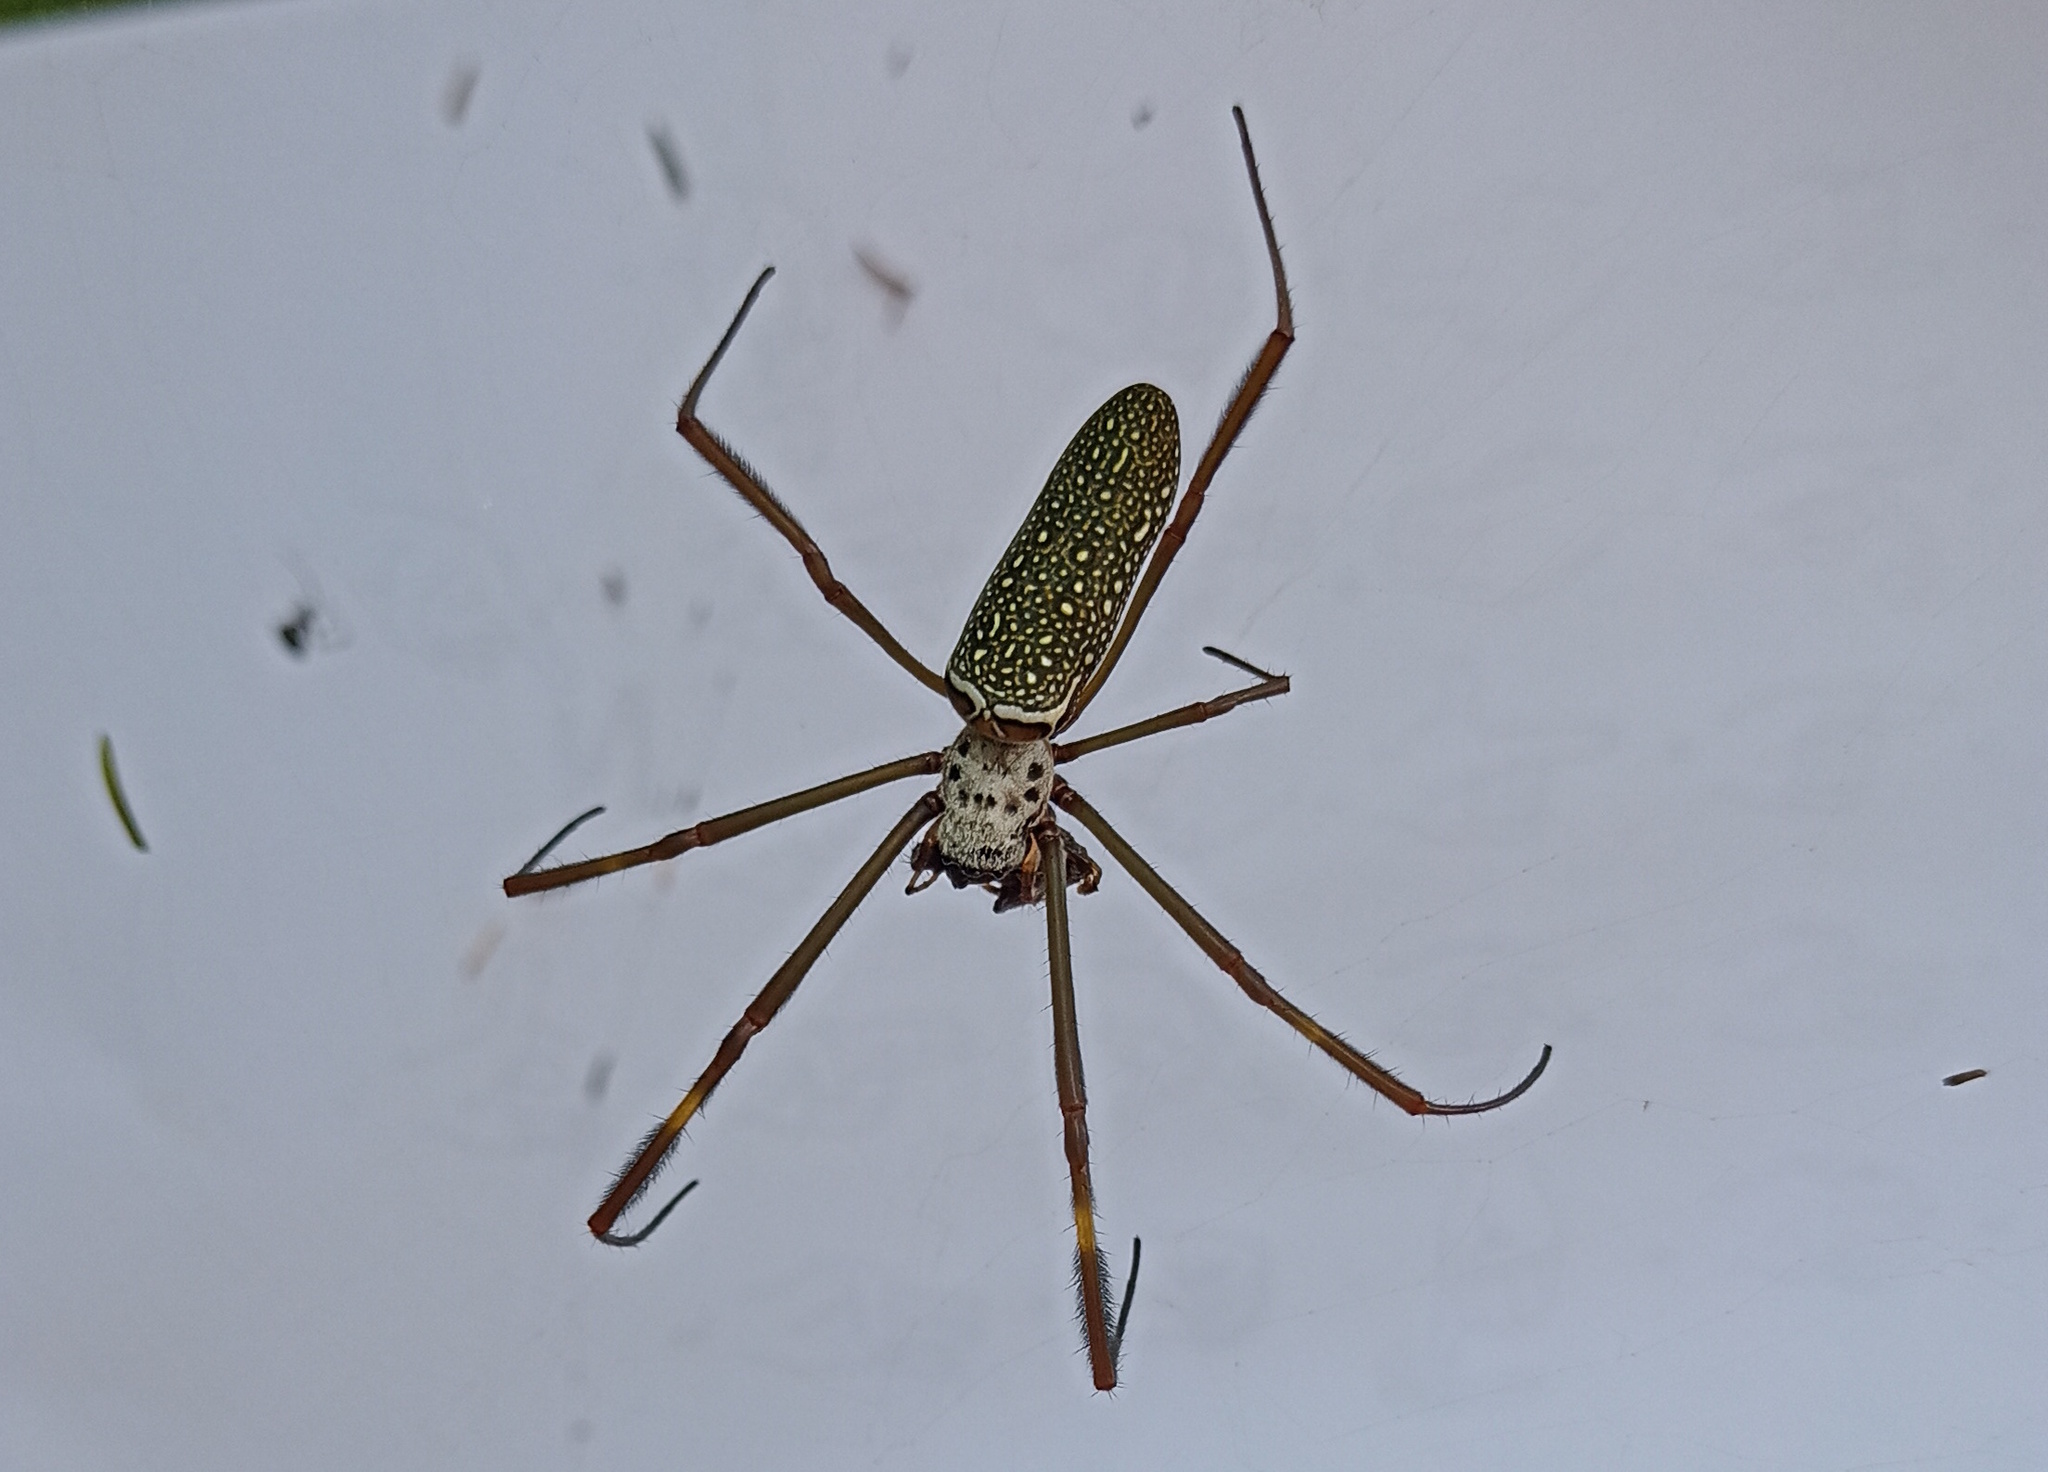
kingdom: Animalia
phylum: Arthropoda
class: Arachnida
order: Araneae
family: Araneidae
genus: Trichonephila
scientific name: Trichonephila clavipes
